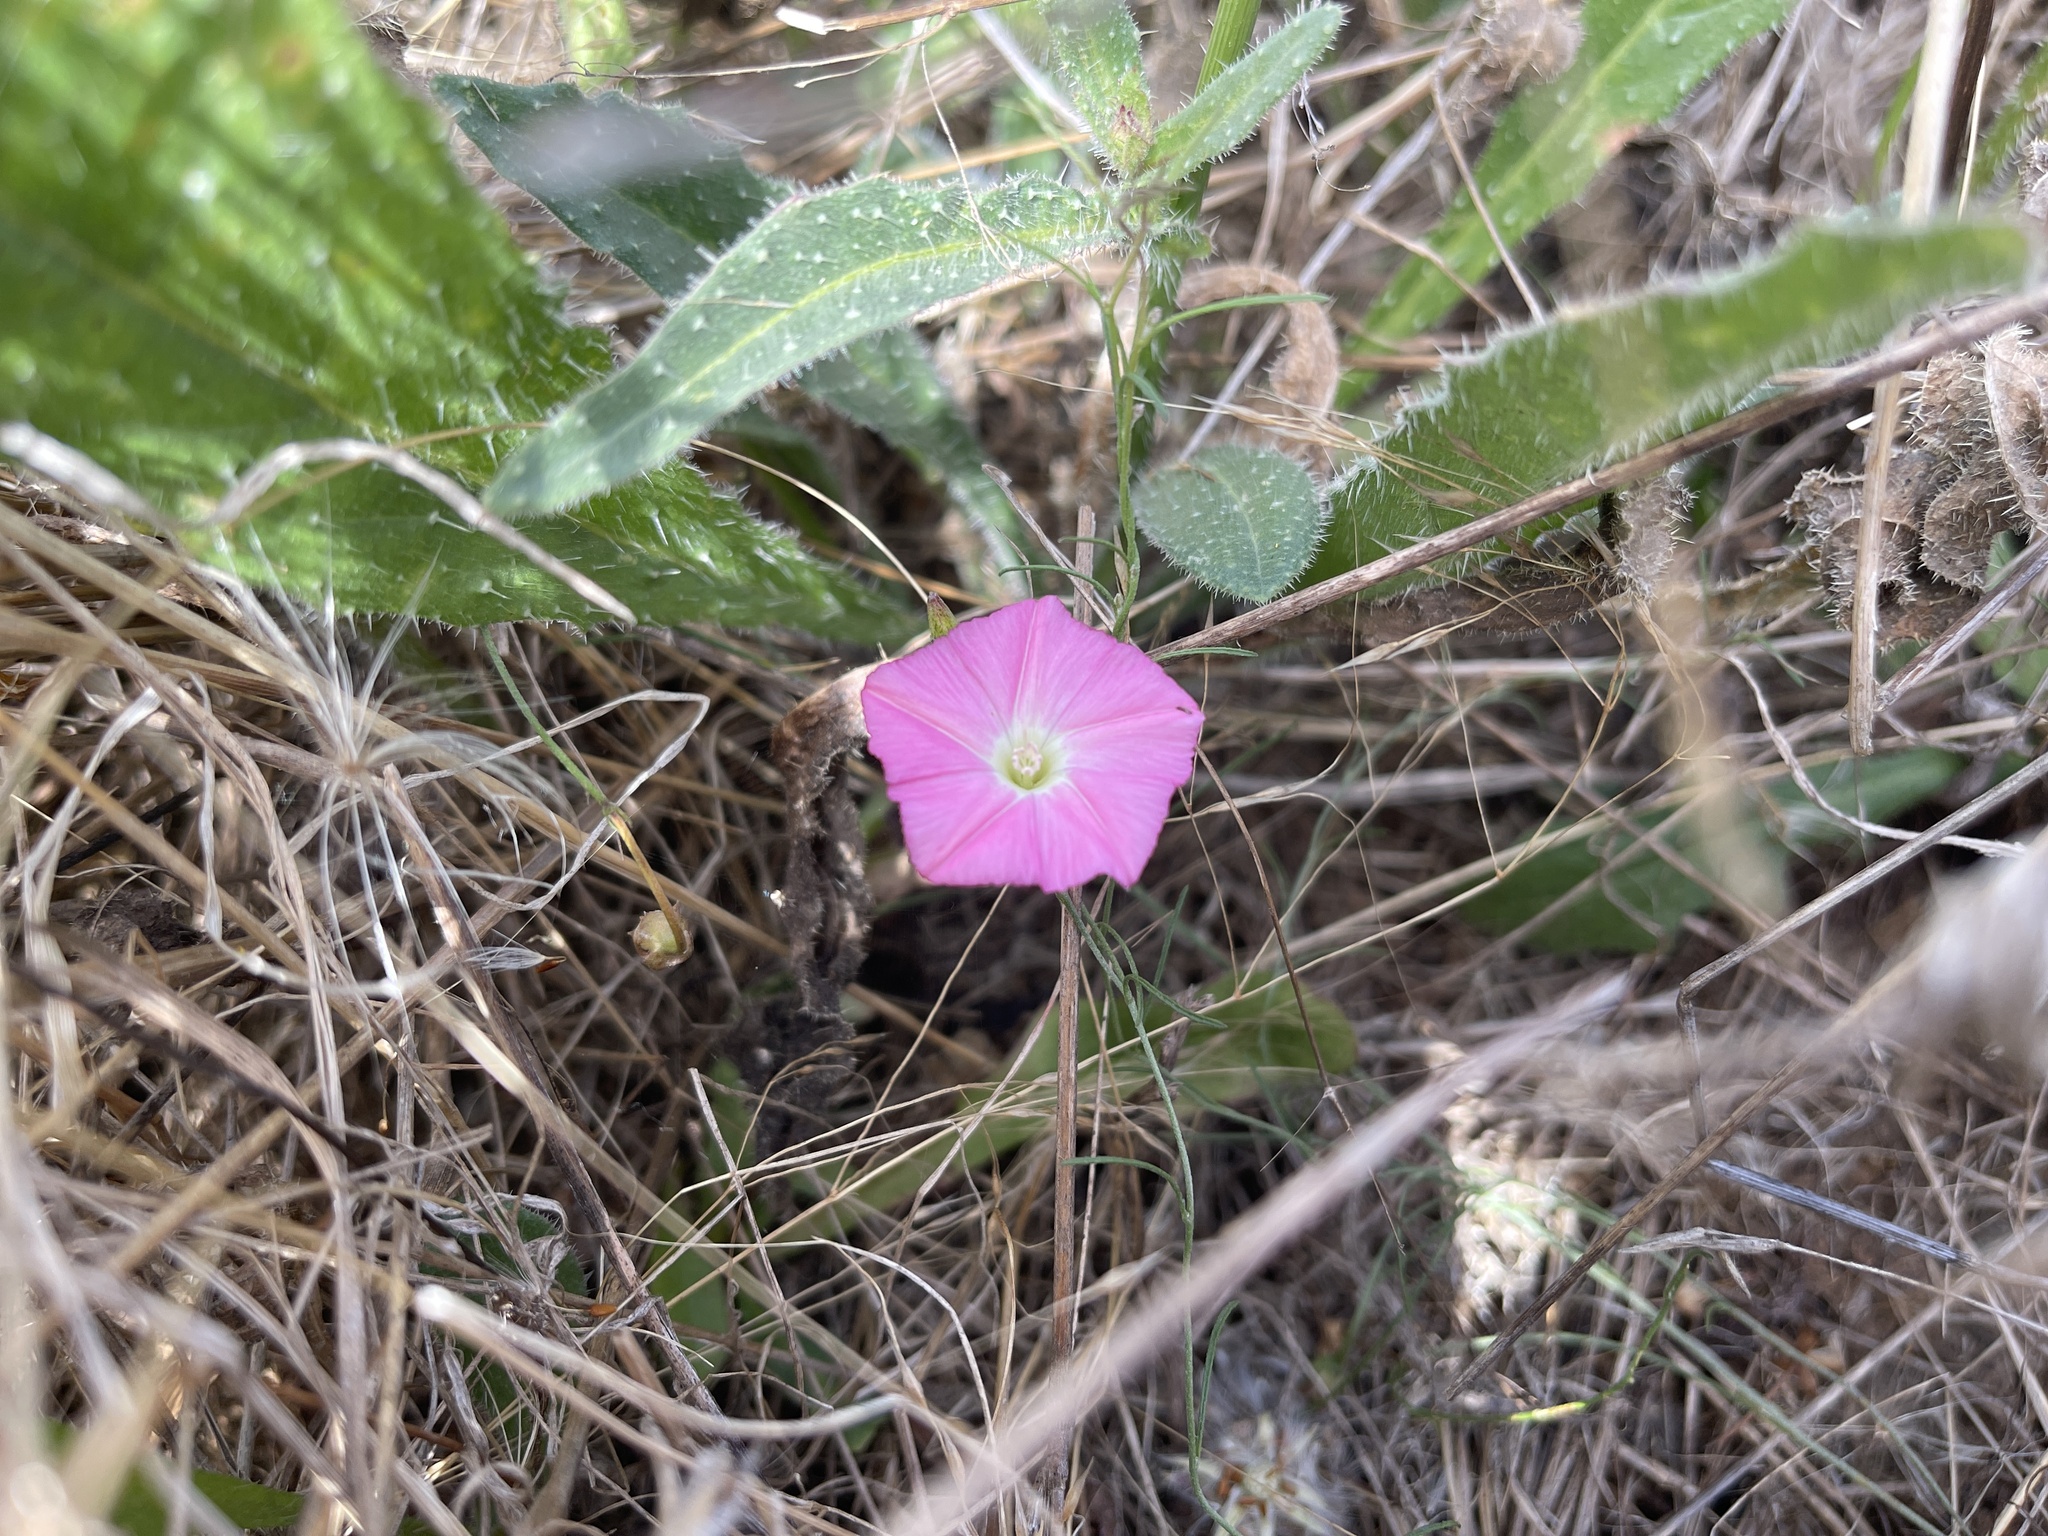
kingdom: Plantae
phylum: Tracheophyta
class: Magnoliopsida
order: Solanales
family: Convolvulaceae
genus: Convolvulus
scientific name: Convolvulus angustissimus
